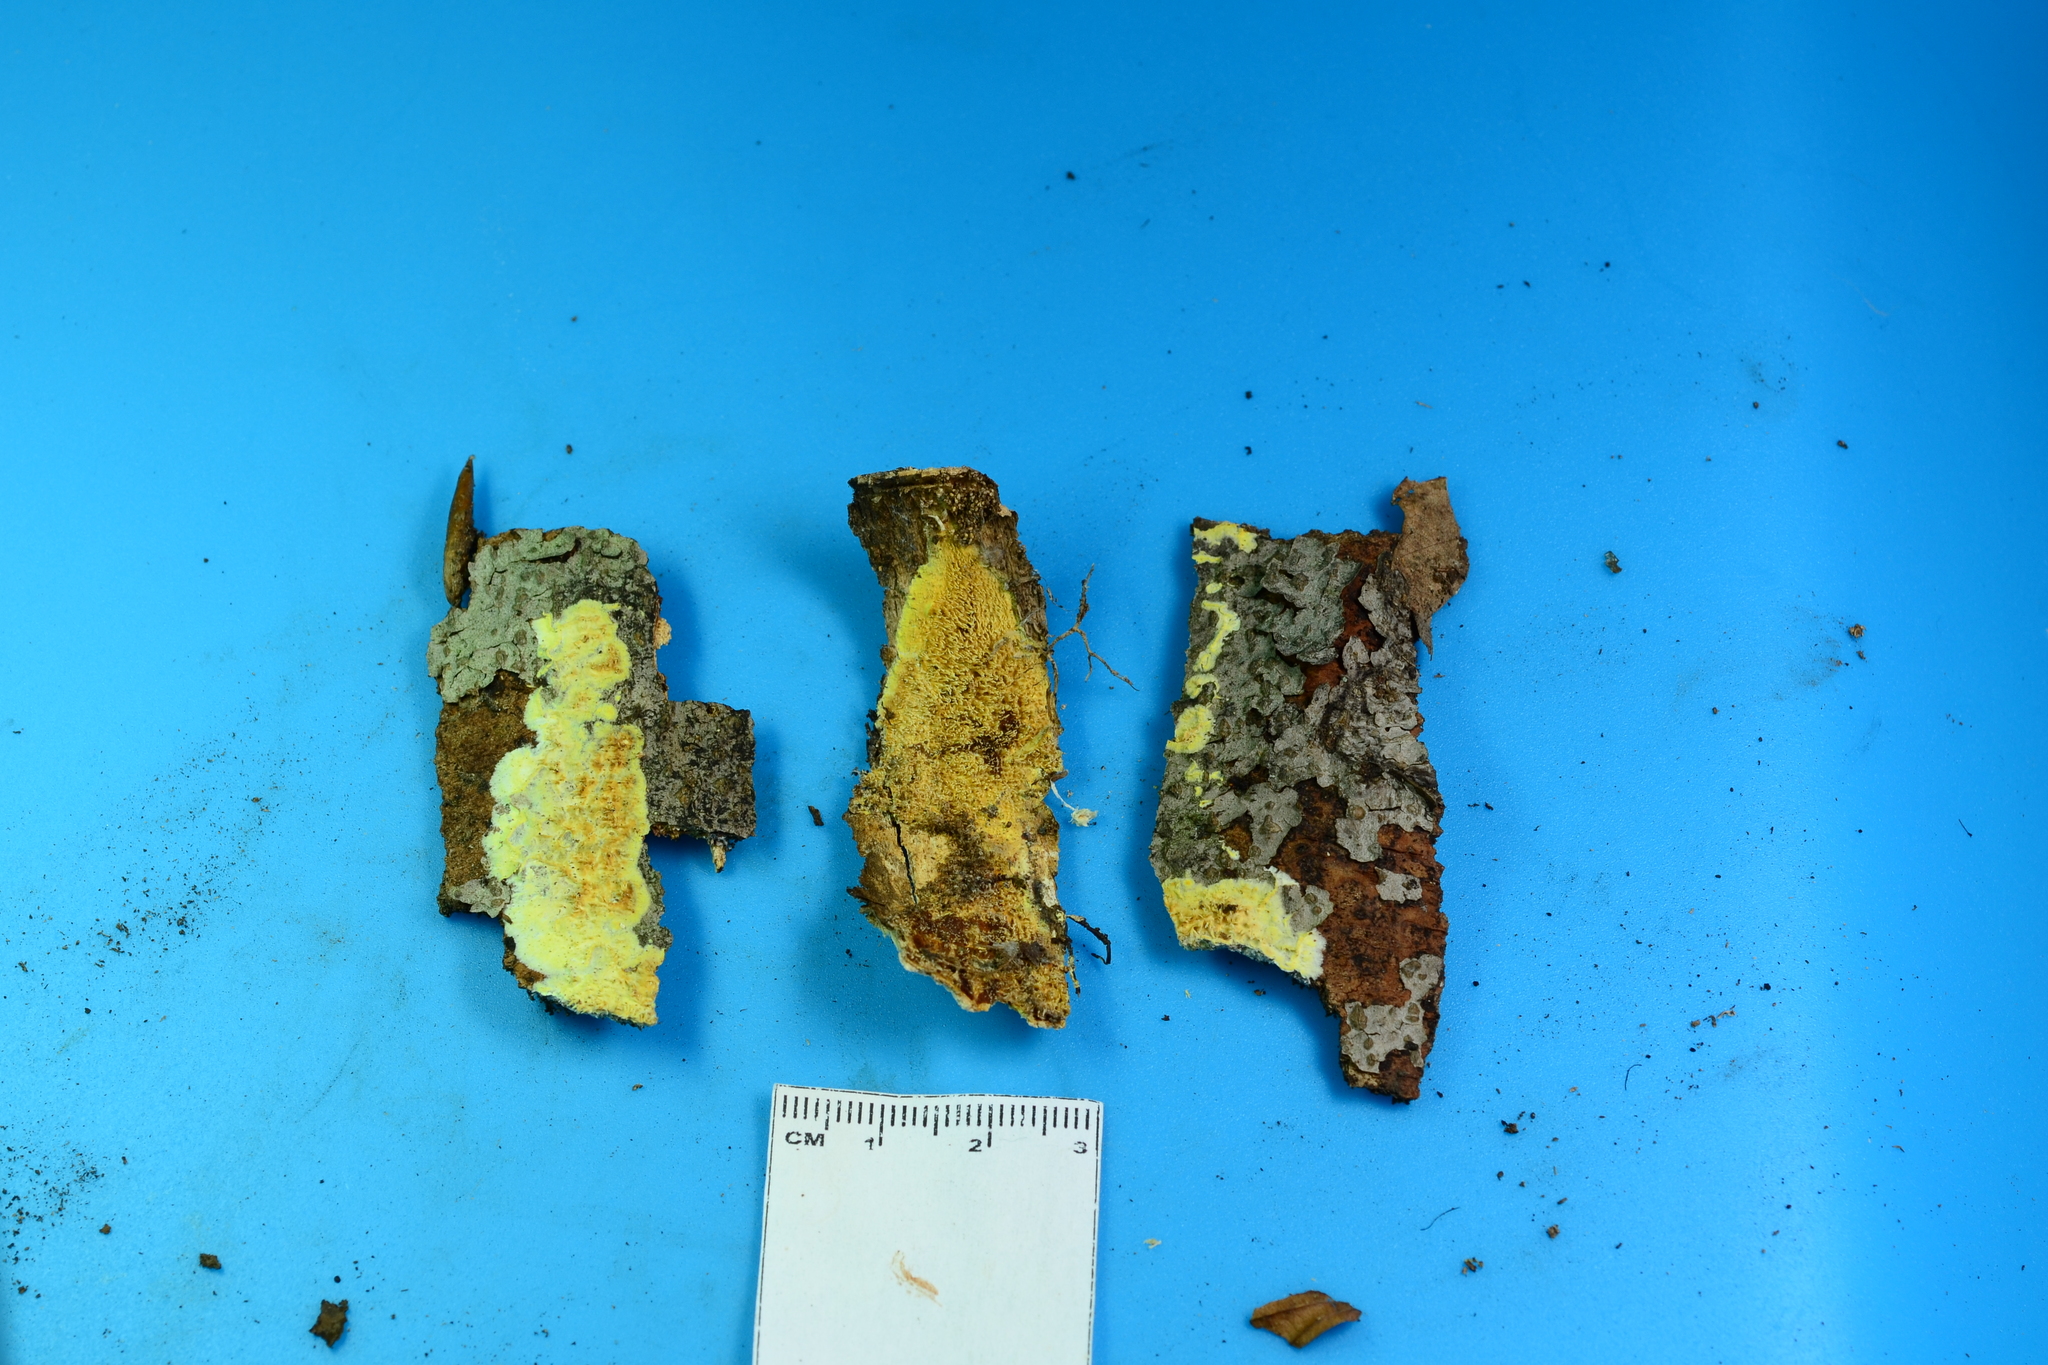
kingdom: Fungi
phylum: Basidiomycota
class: Agaricomycetes
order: Polyporales
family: Meruliaceae
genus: Mycoacia
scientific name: Mycoacia uda
